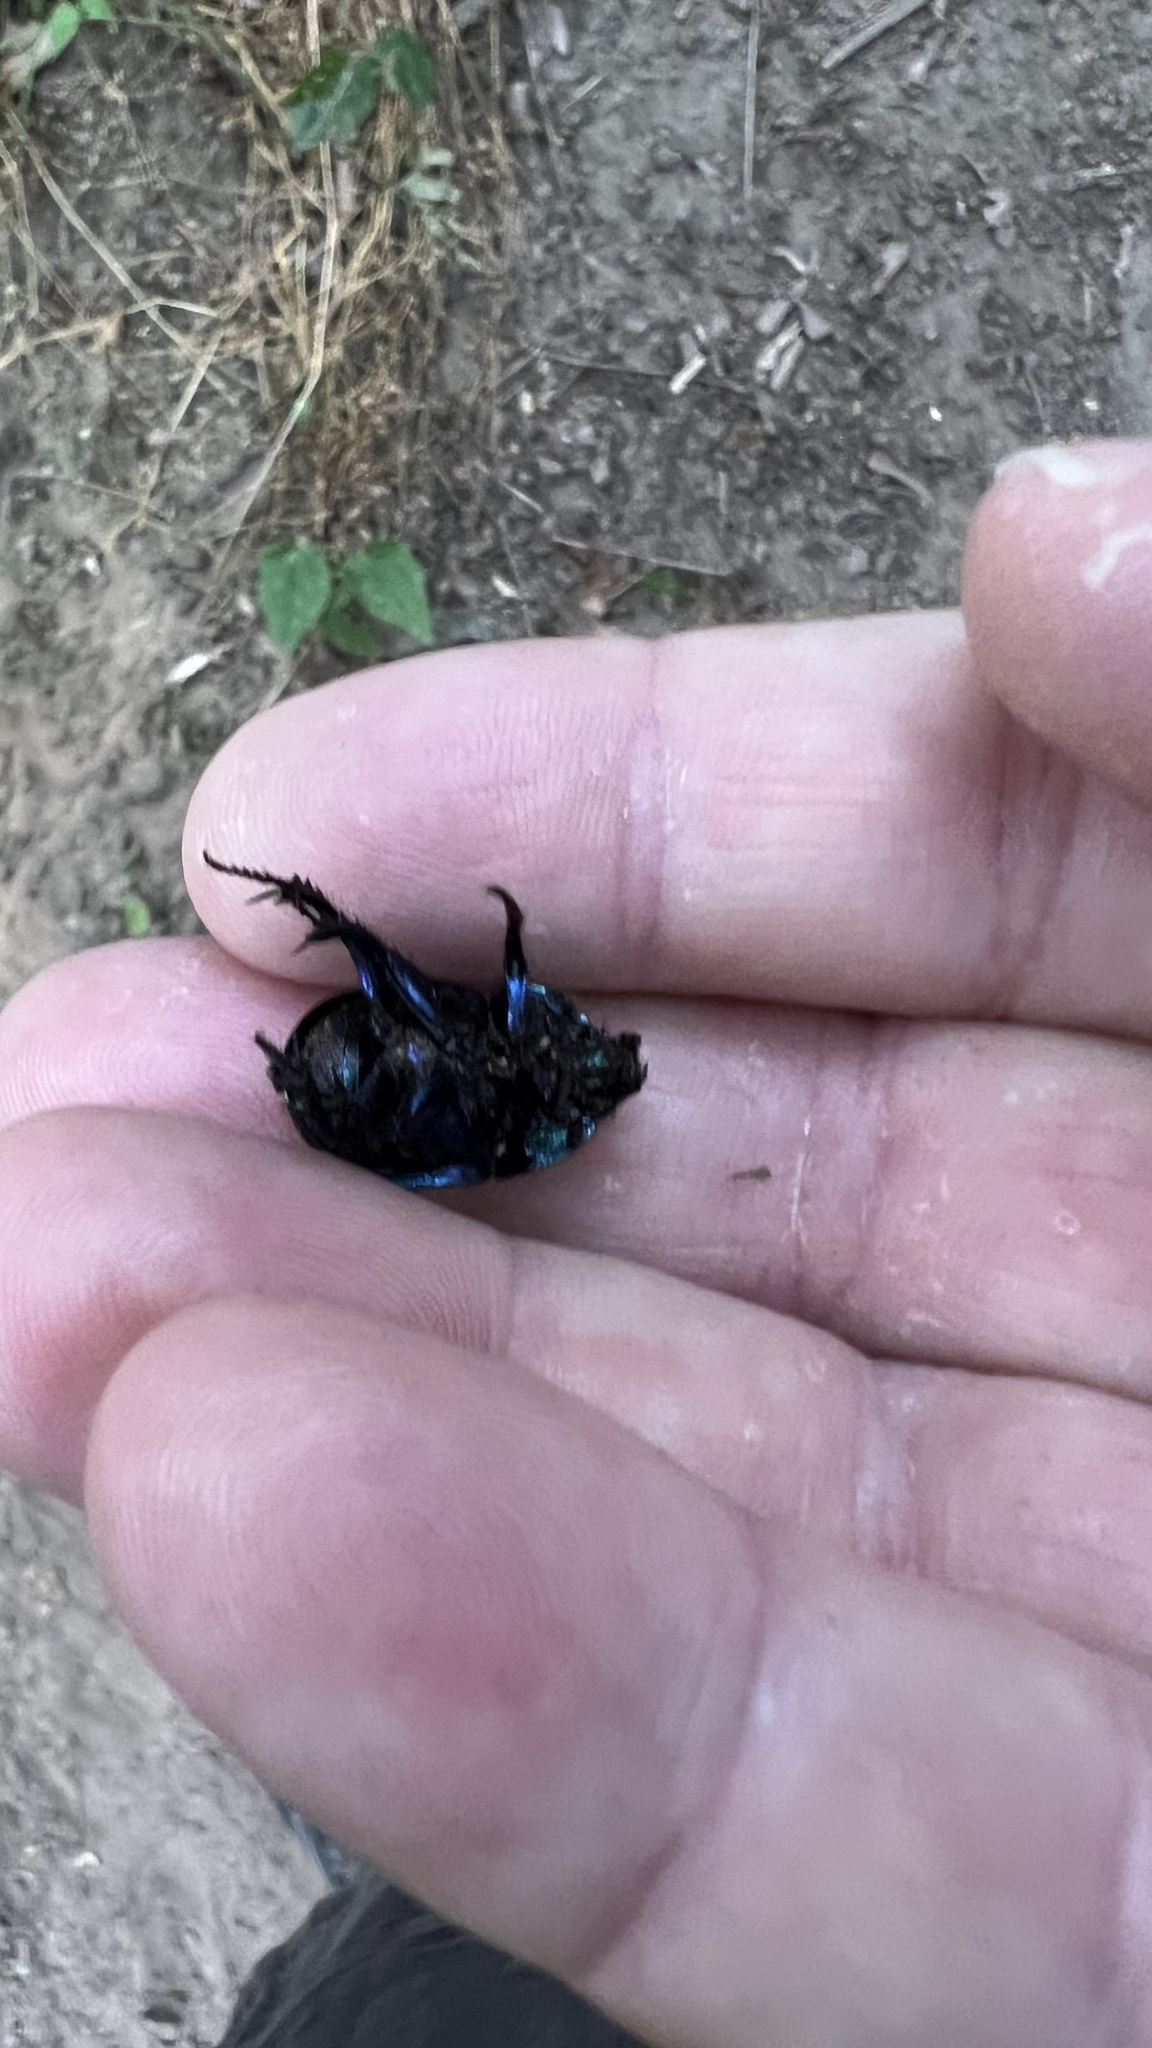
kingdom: Animalia
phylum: Arthropoda
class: Insecta
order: Coleoptera
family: Geotrupidae
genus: Trypocopris
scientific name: Trypocopris vernalis
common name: Spring dumbledor
